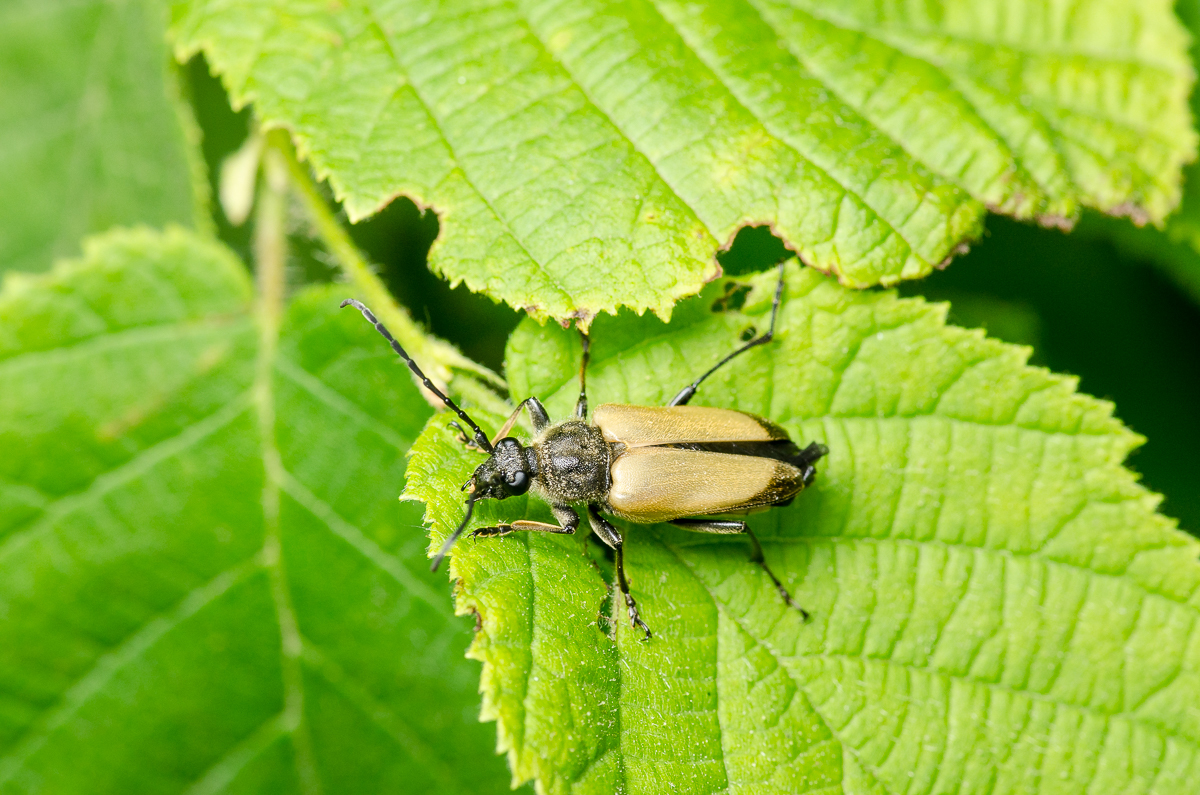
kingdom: Animalia
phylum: Arthropoda
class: Insecta
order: Coleoptera
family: Cerambycidae
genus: Trigonarthris
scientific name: Trigonarthris proxima
